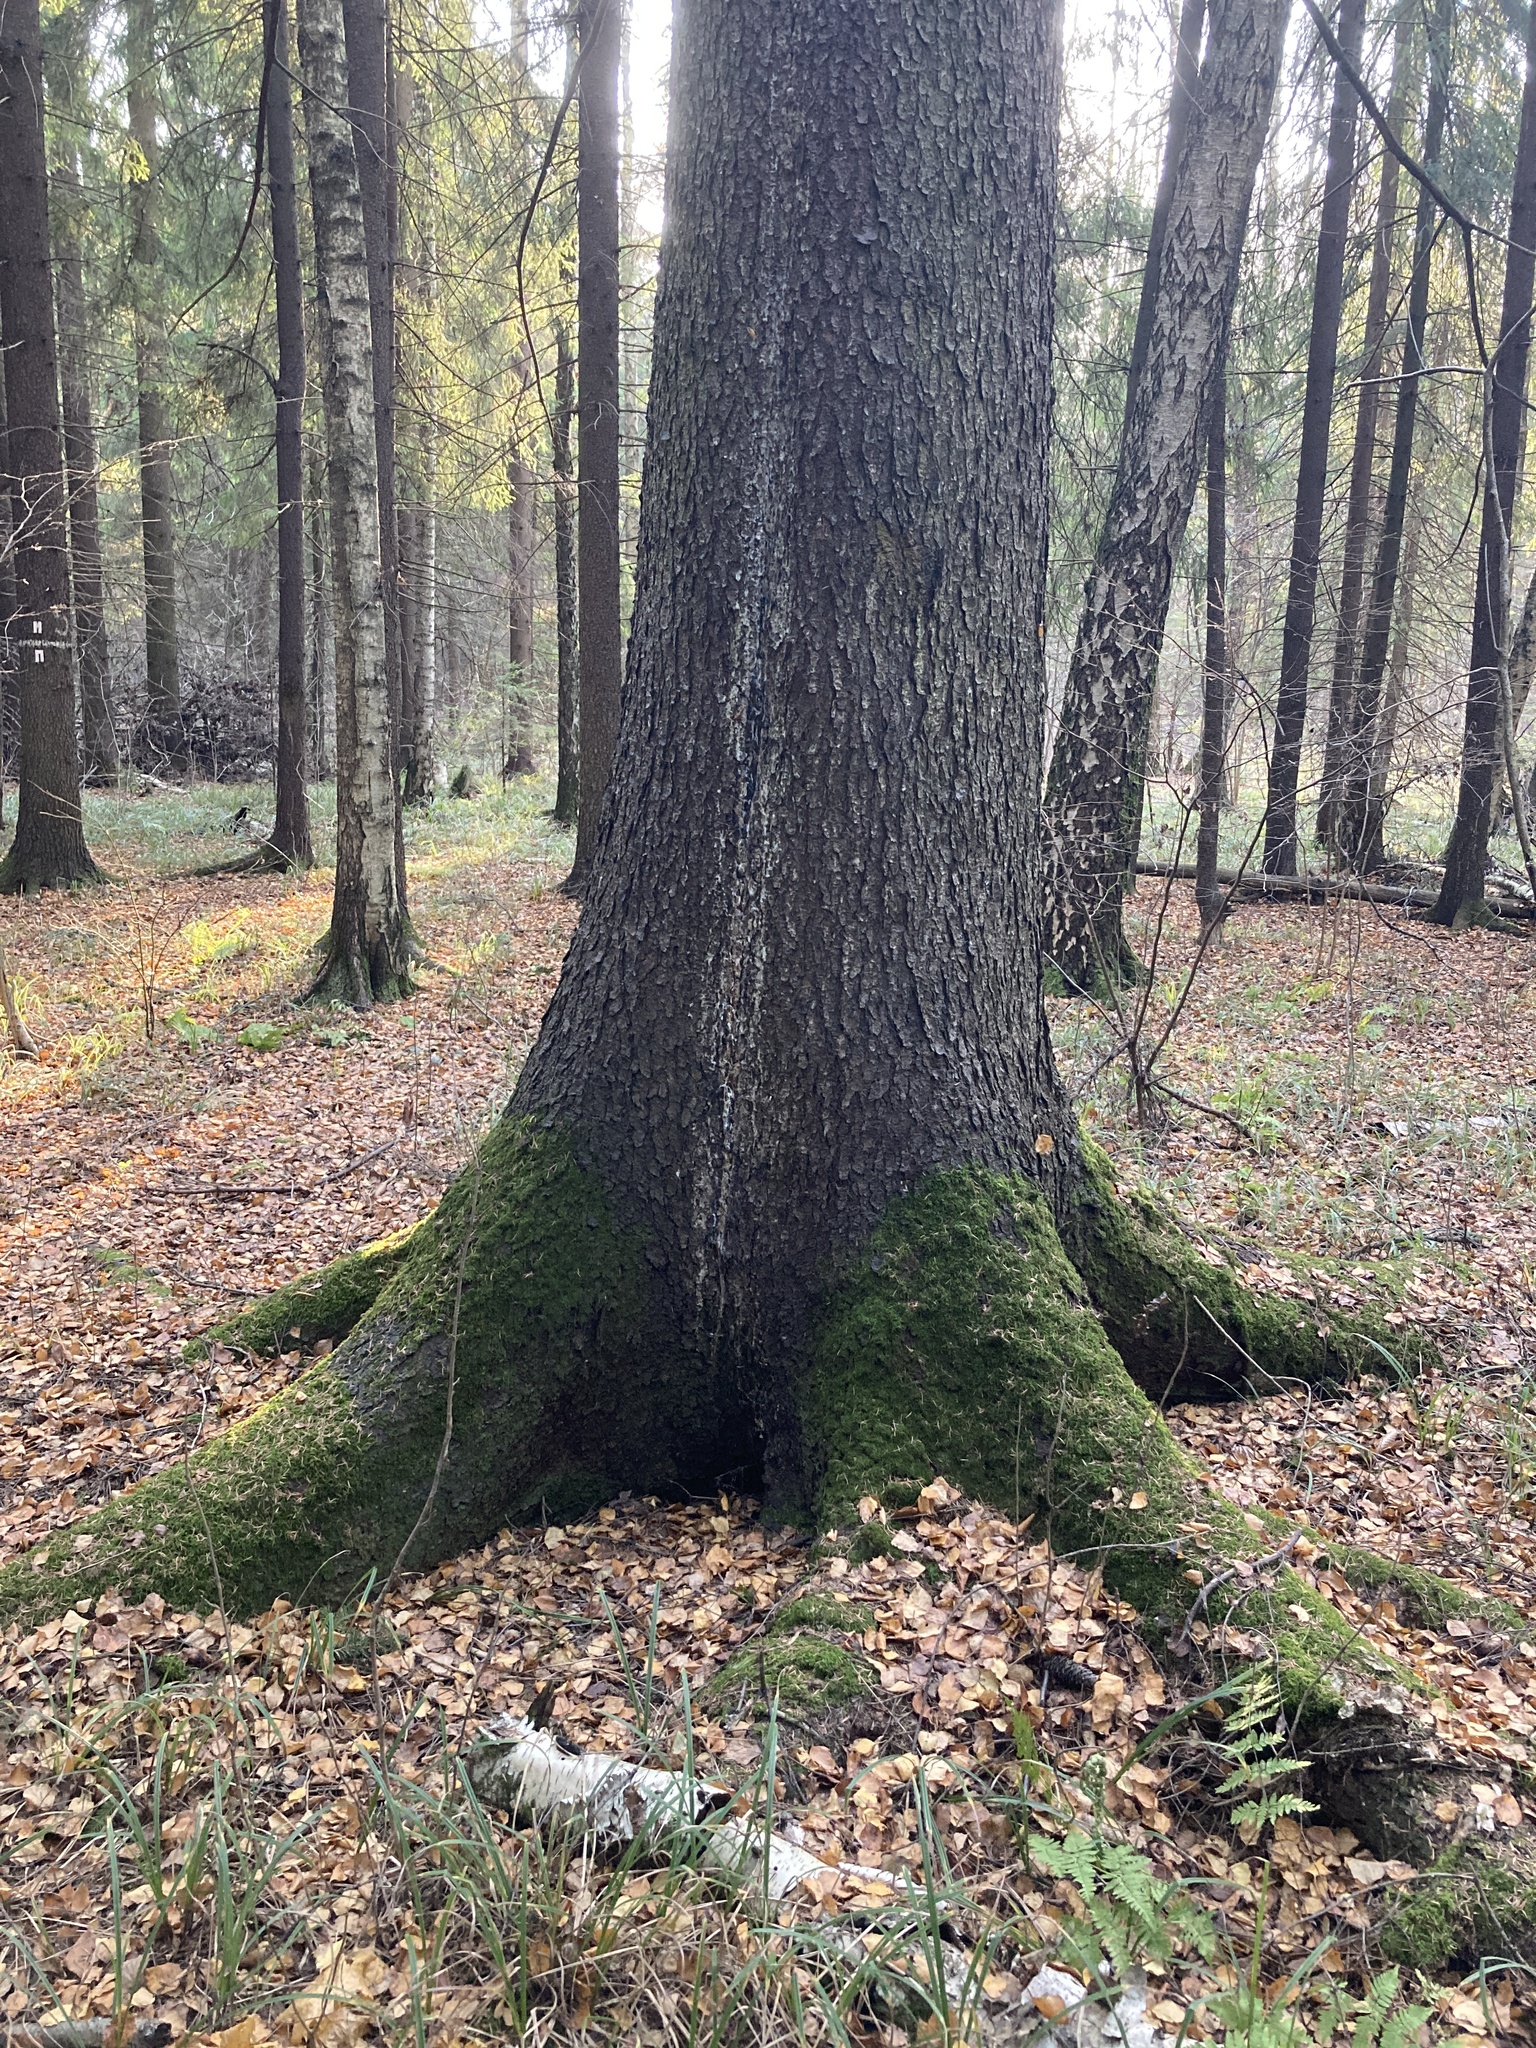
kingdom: Plantae
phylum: Tracheophyta
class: Pinopsida
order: Pinales
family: Pinaceae
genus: Picea
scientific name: Picea abies
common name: Norway spruce
